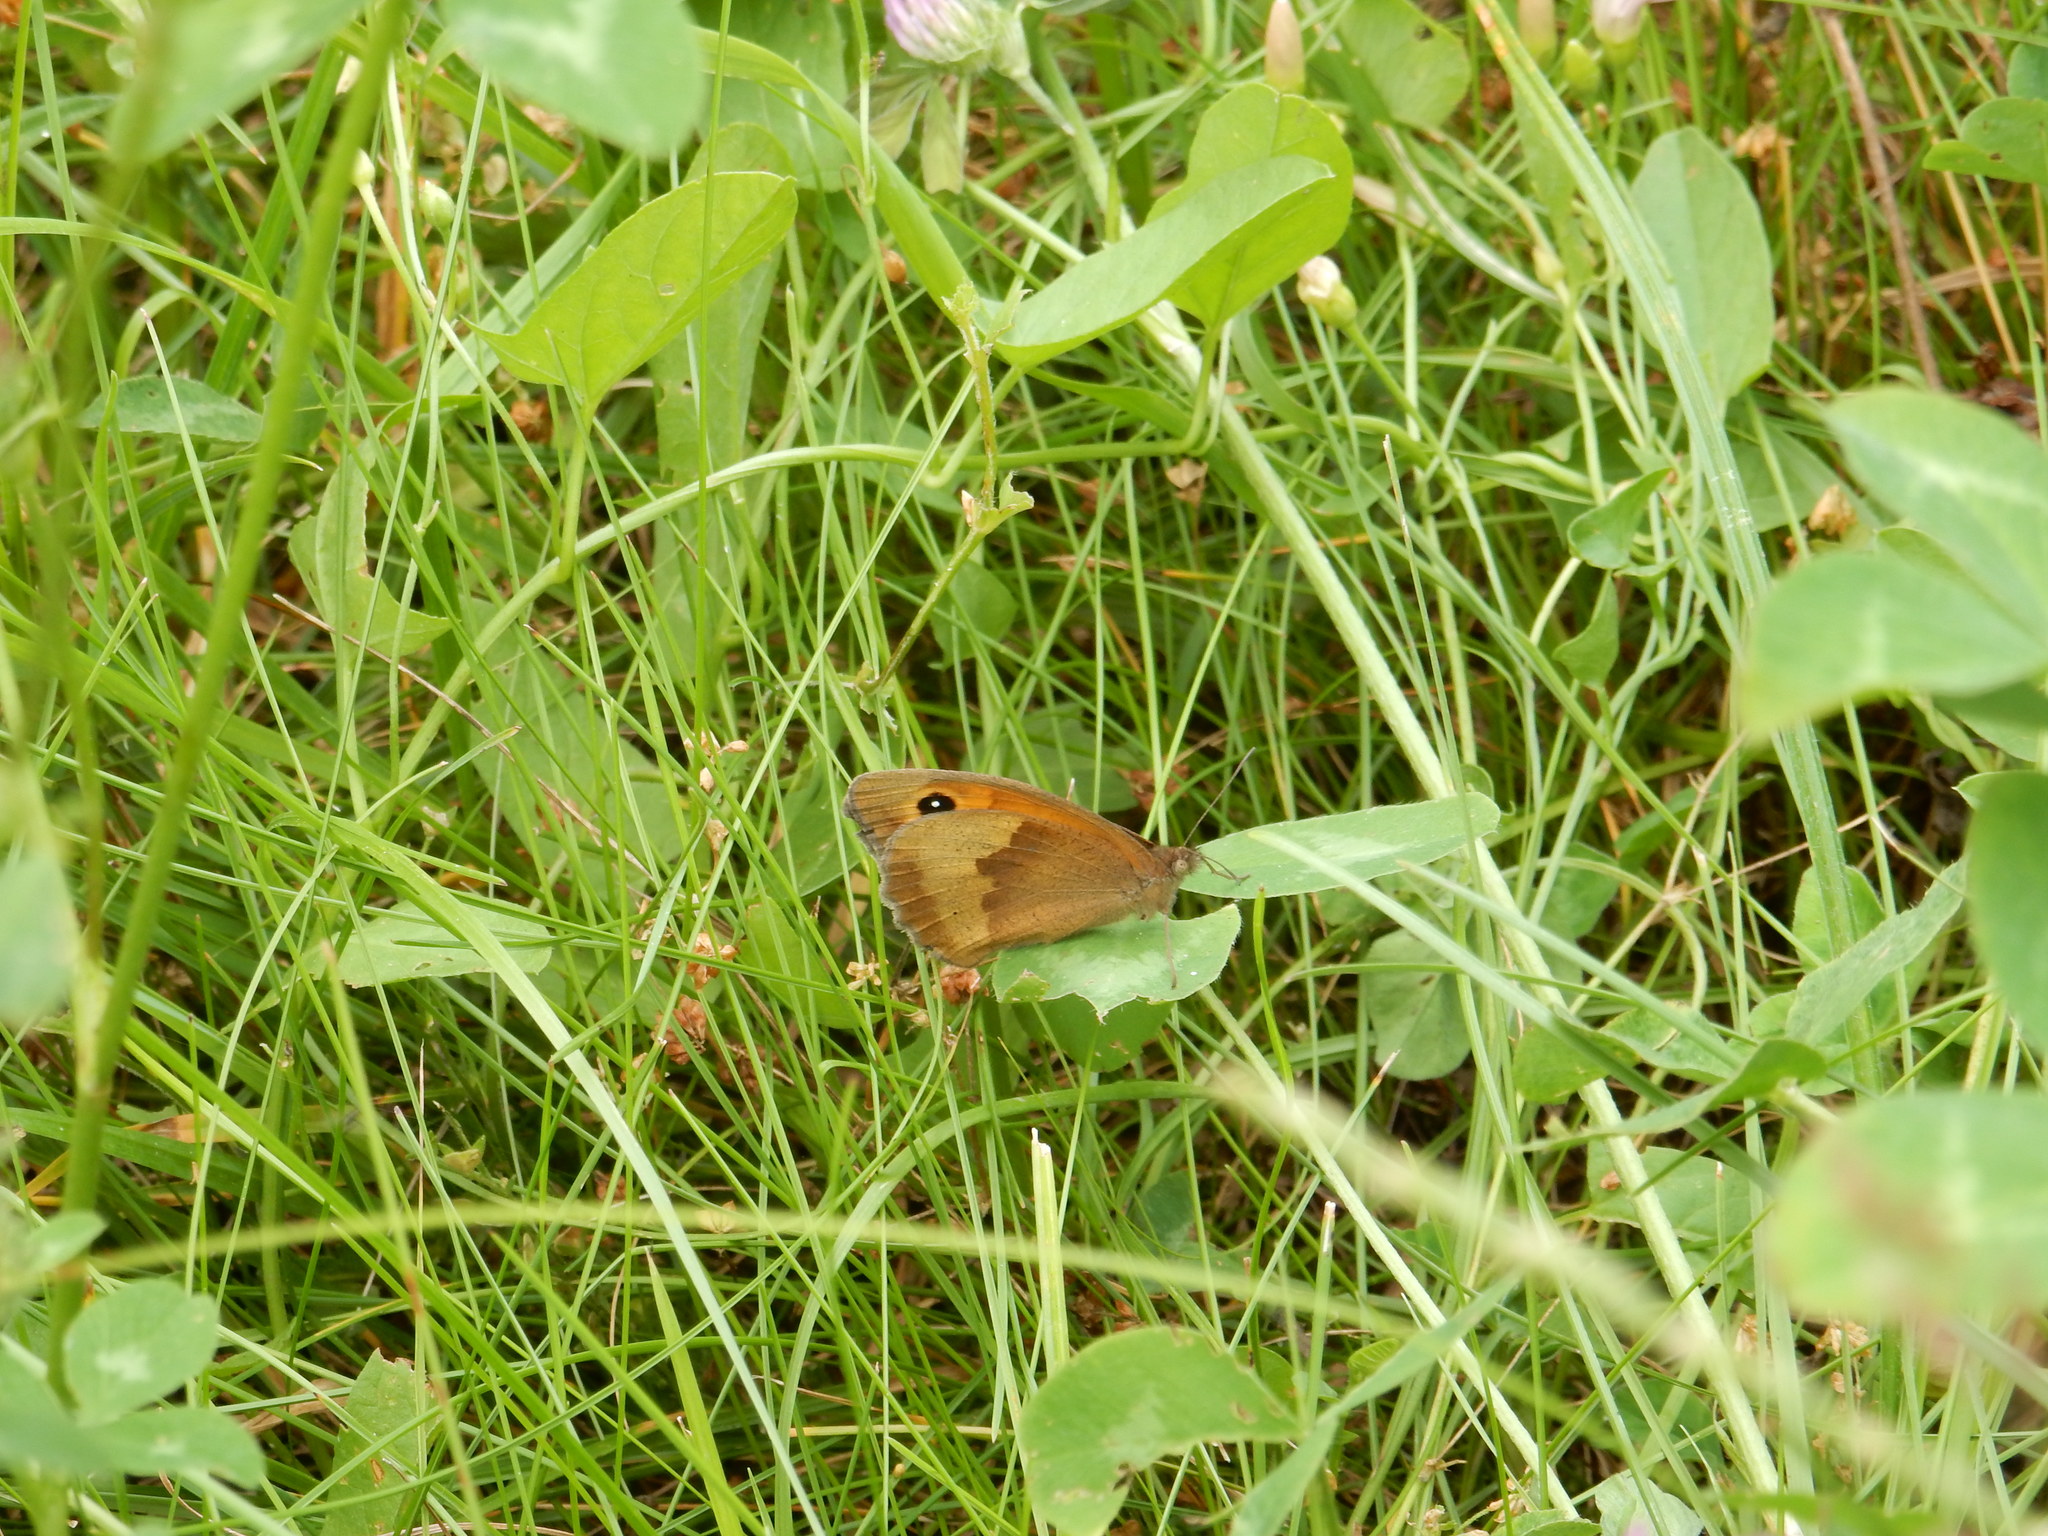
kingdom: Animalia
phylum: Arthropoda
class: Insecta
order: Lepidoptera
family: Nymphalidae
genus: Maniola
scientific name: Maniola jurtina
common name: Meadow brown
